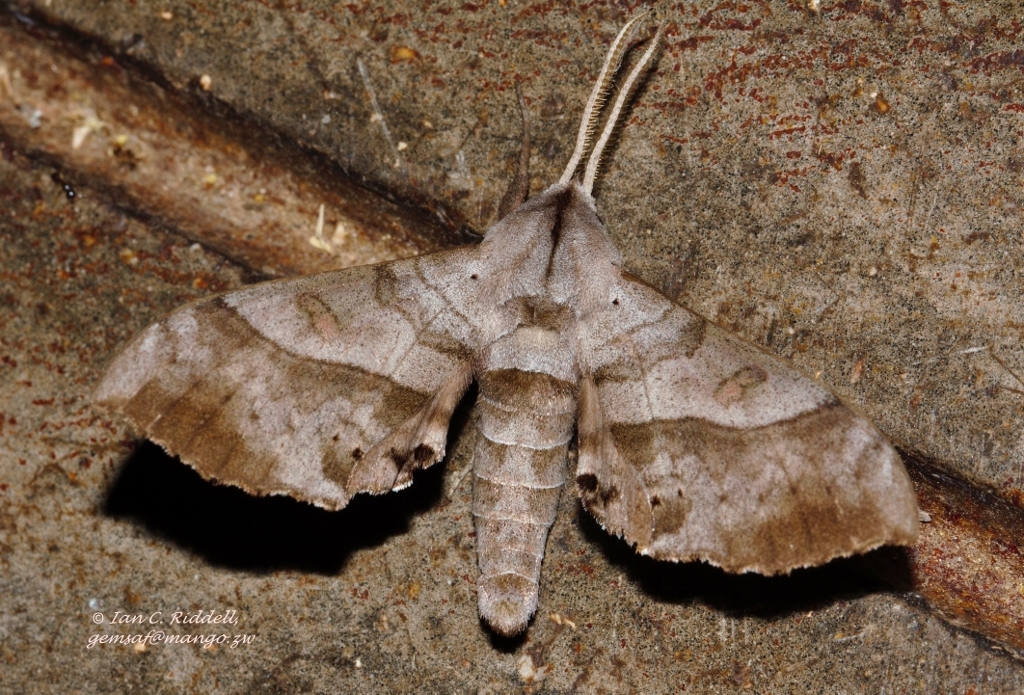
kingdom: Animalia
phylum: Arthropoda
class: Insecta
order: Lepidoptera
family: Sphingidae
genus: Rufoclanis
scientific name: Rufoclanis numosae
